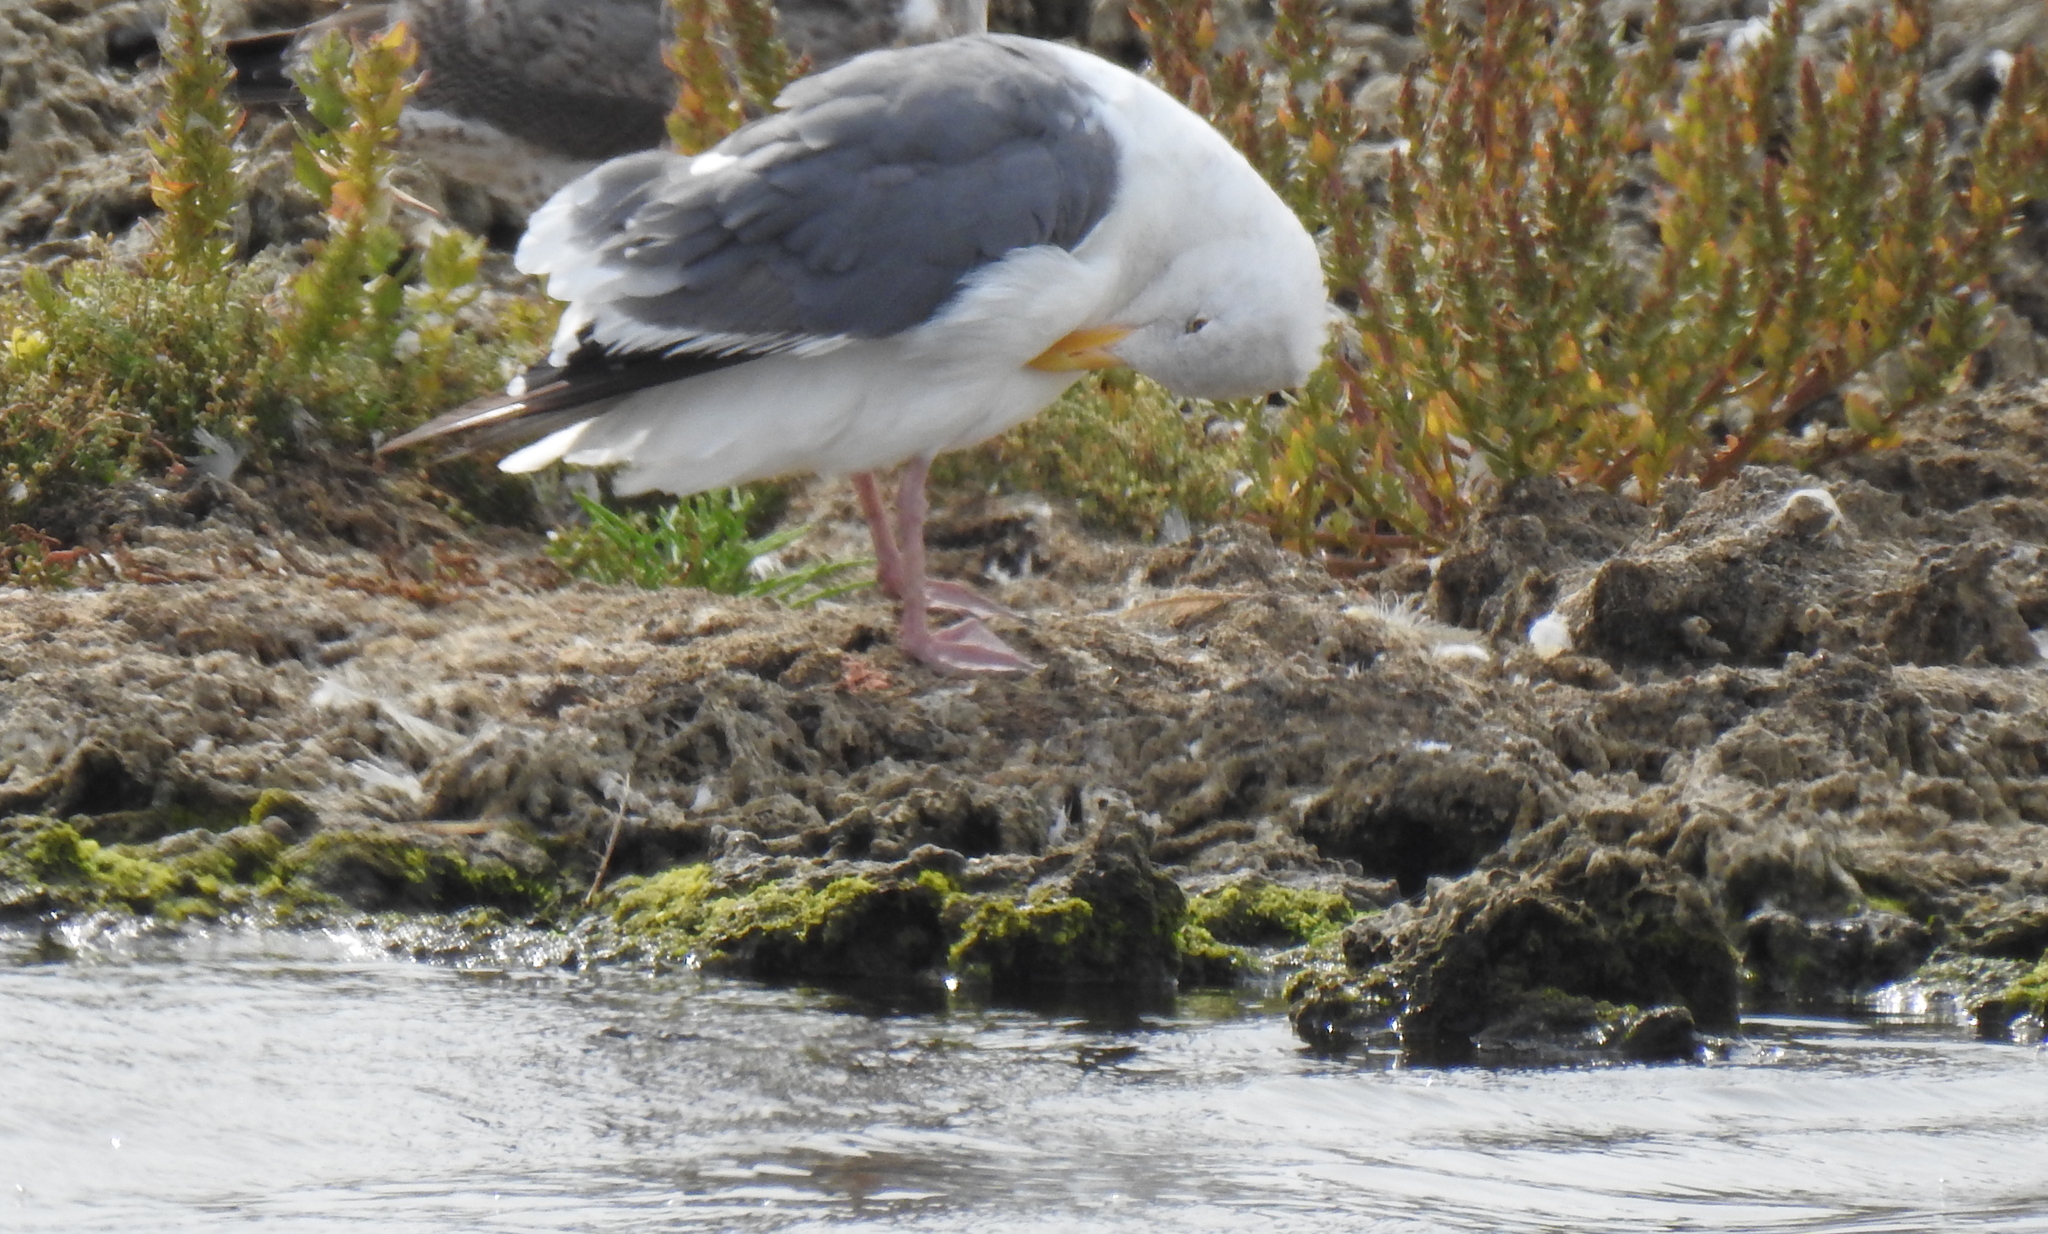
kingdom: Animalia
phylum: Chordata
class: Aves
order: Charadriiformes
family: Laridae
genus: Larus
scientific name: Larus occidentalis
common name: Western gull
